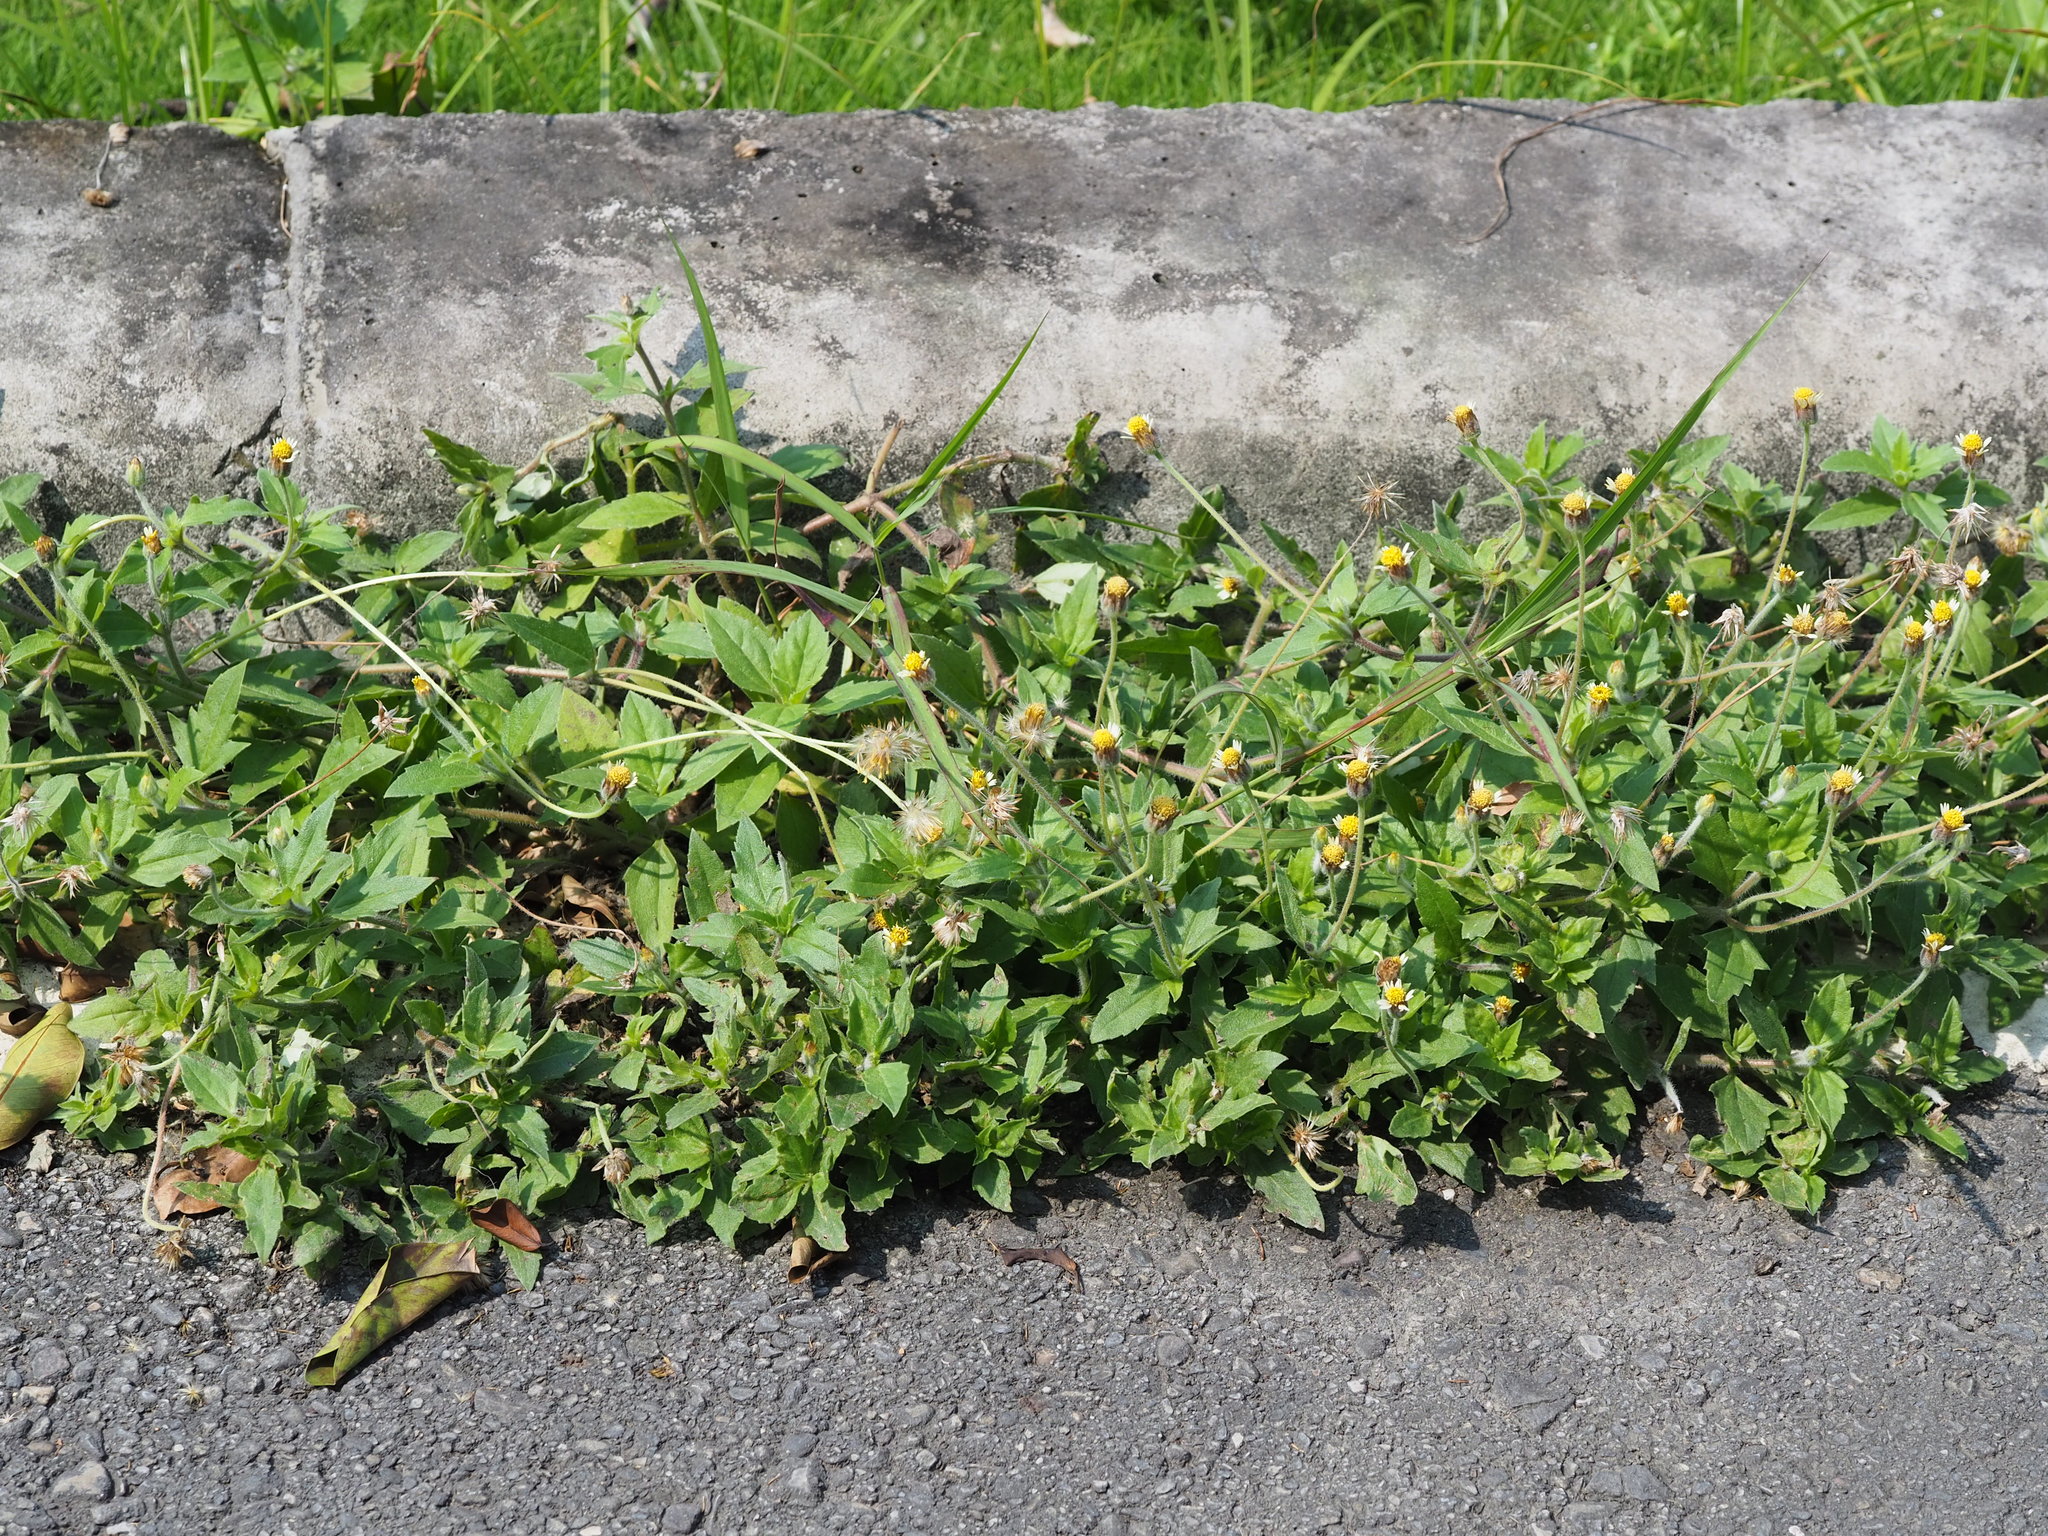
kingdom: Plantae
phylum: Tracheophyta
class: Magnoliopsida
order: Asterales
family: Asteraceae
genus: Tridax
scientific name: Tridax procumbens
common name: Coatbuttons
